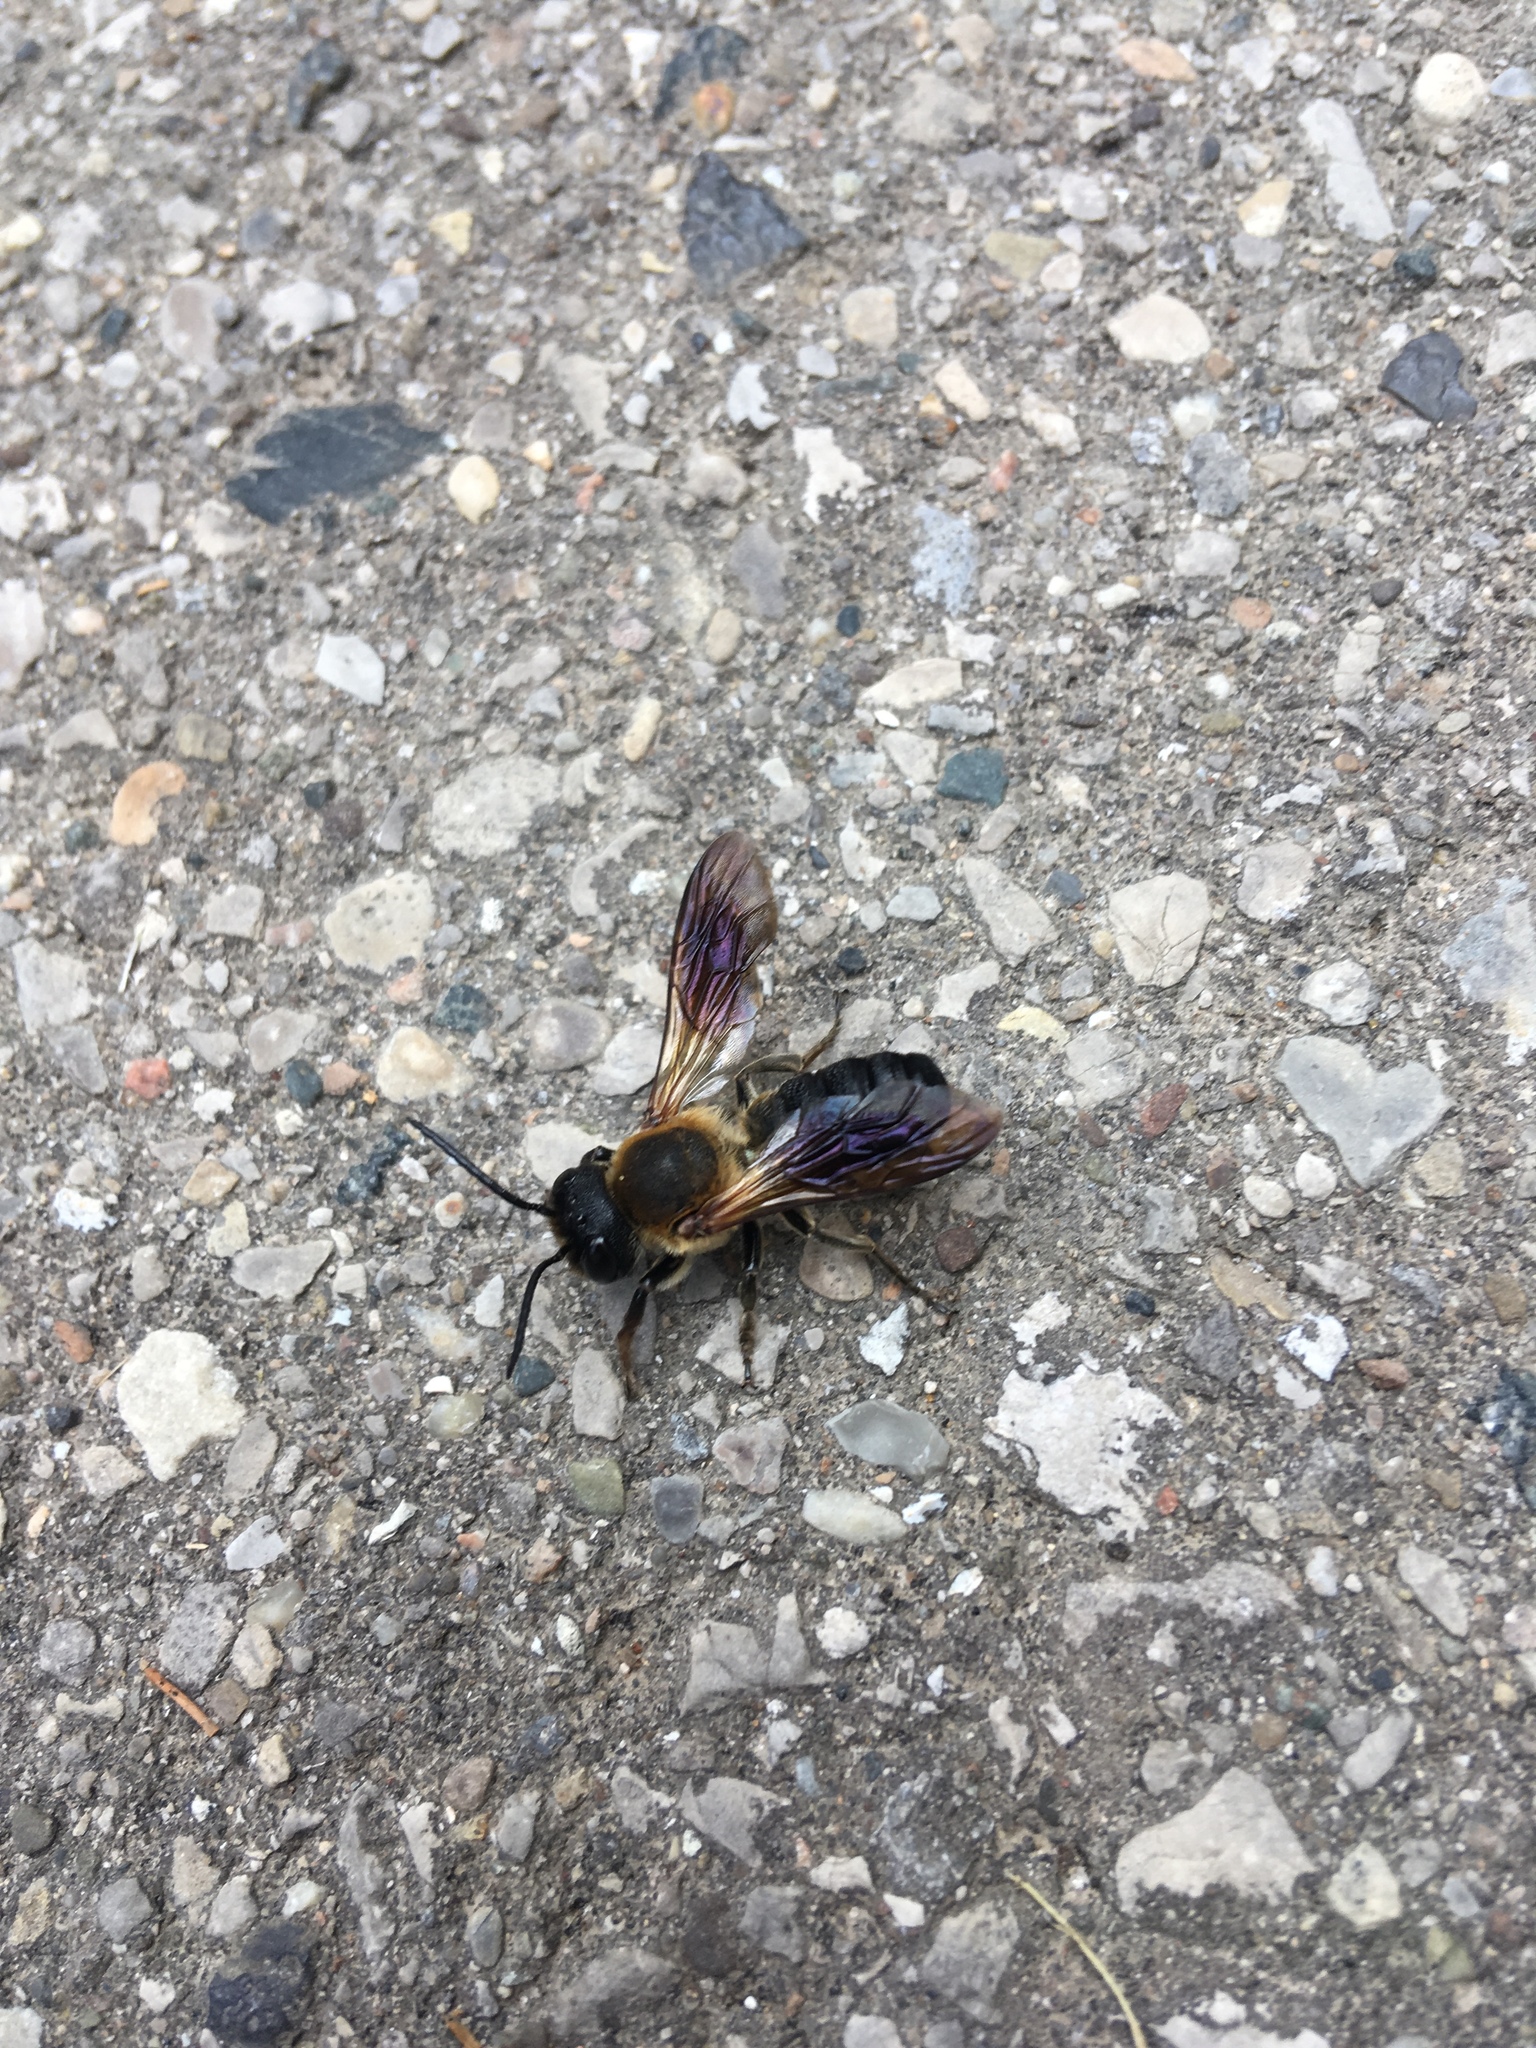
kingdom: Animalia
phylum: Arthropoda
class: Insecta
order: Hymenoptera
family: Megachilidae
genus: Megachile
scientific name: Megachile sculpturalis
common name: Sculptured resin bee
